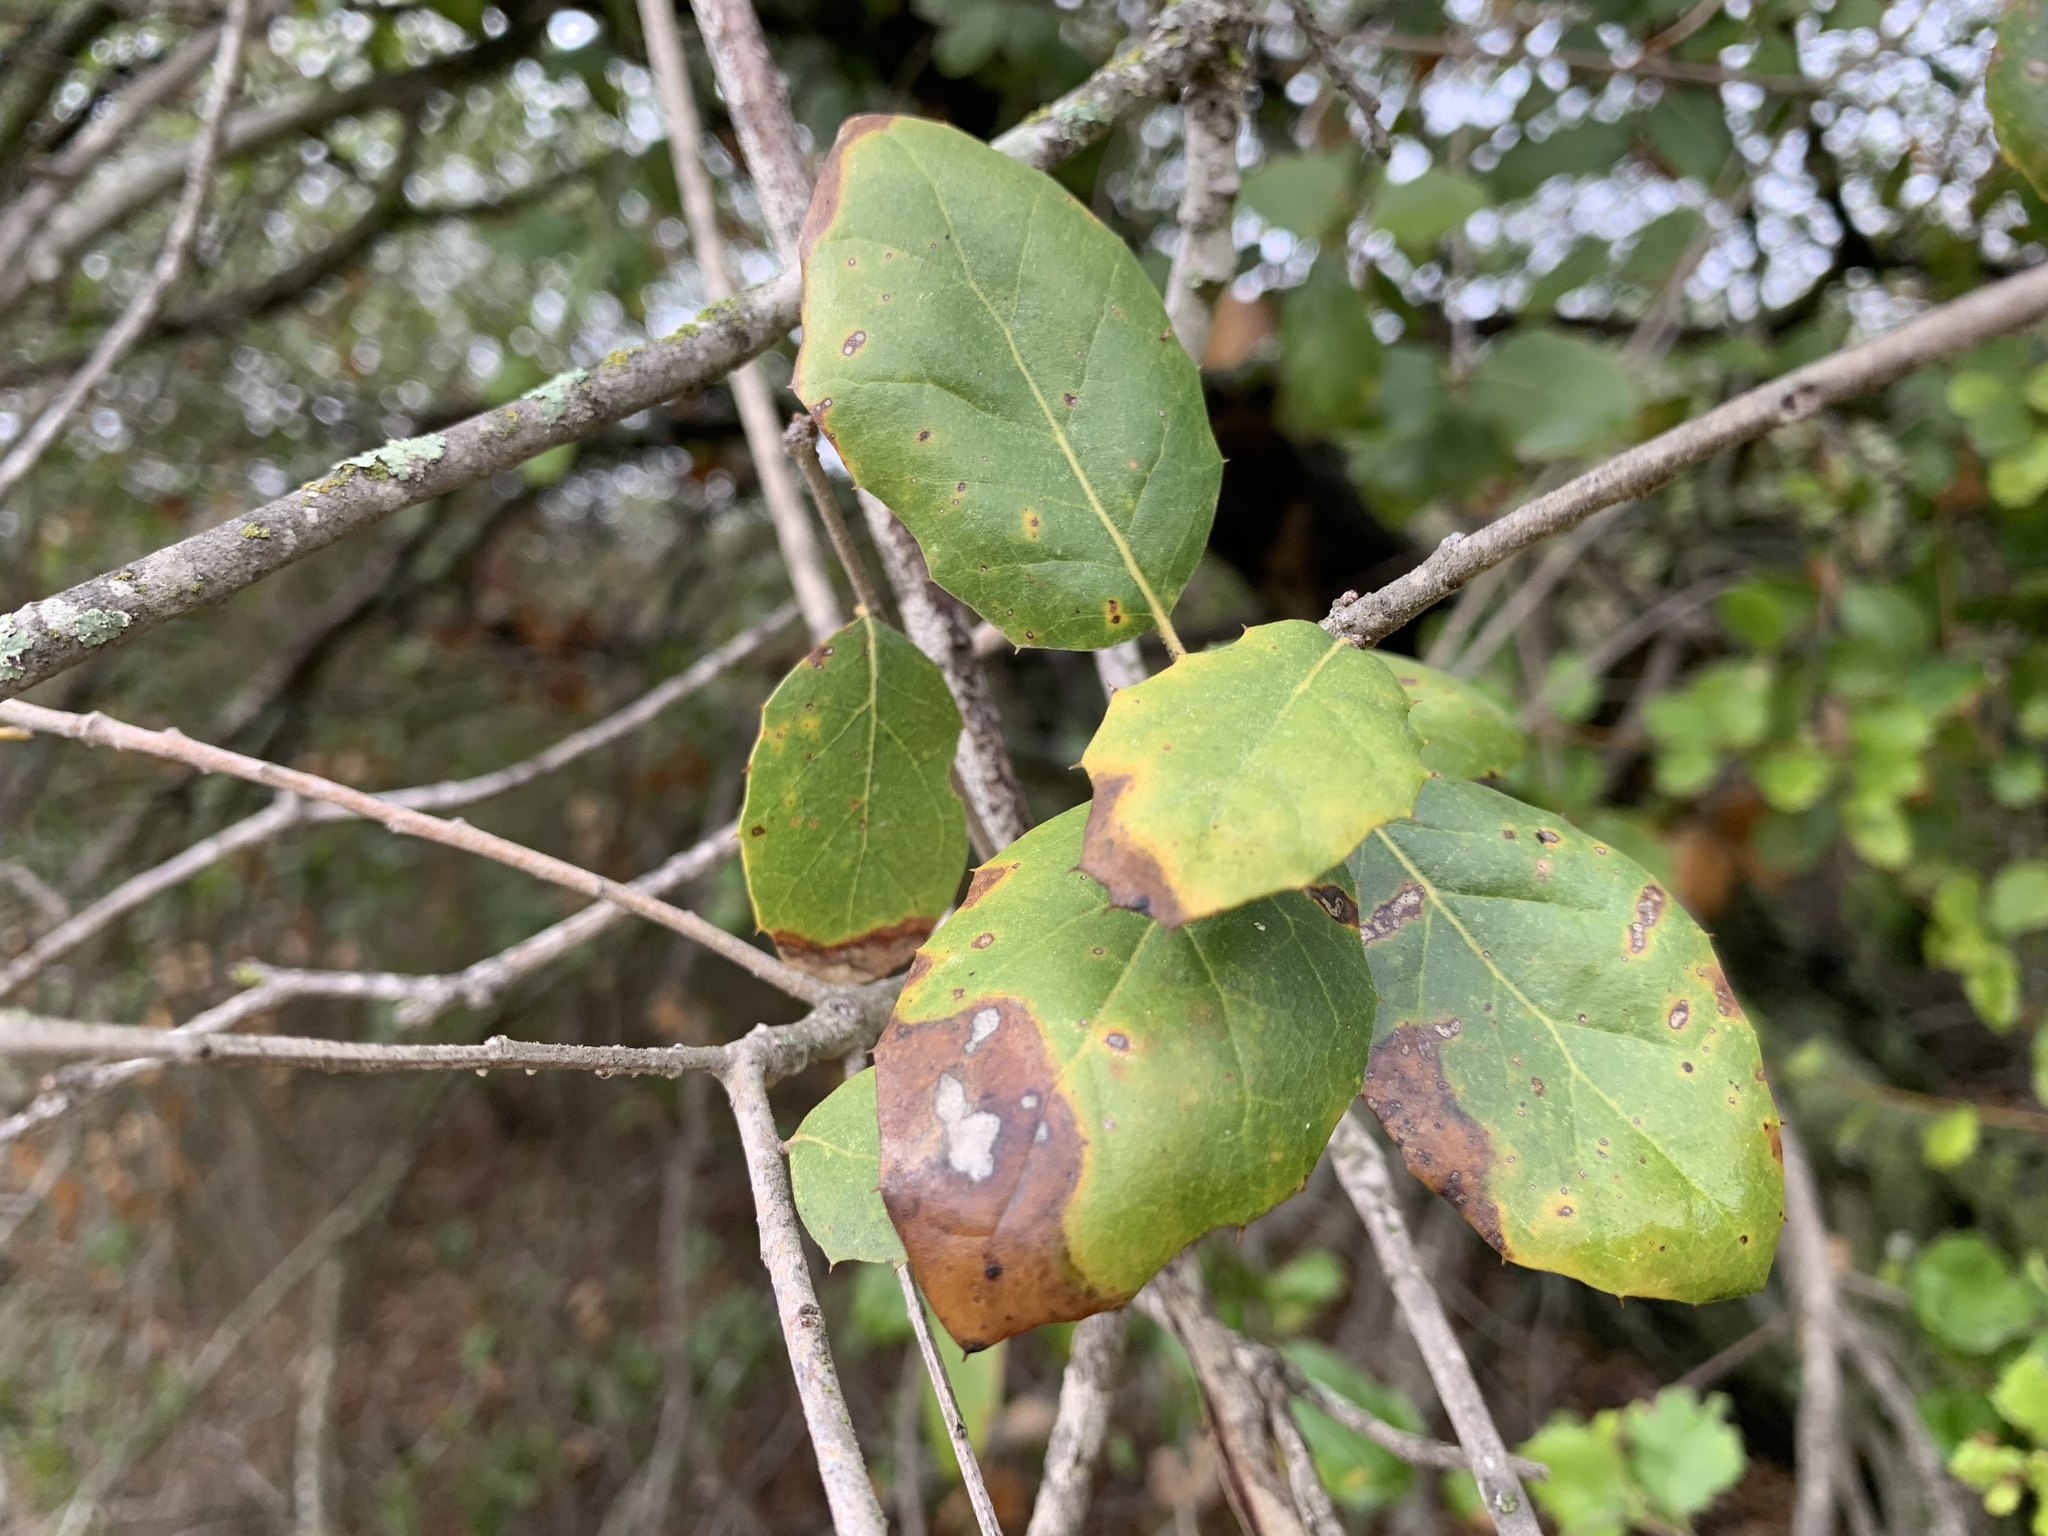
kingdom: Plantae
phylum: Tracheophyta
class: Magnoliopsida
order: Fagales
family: Fagaceae
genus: Quercus
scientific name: Quercus agrifolia
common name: California live oak
